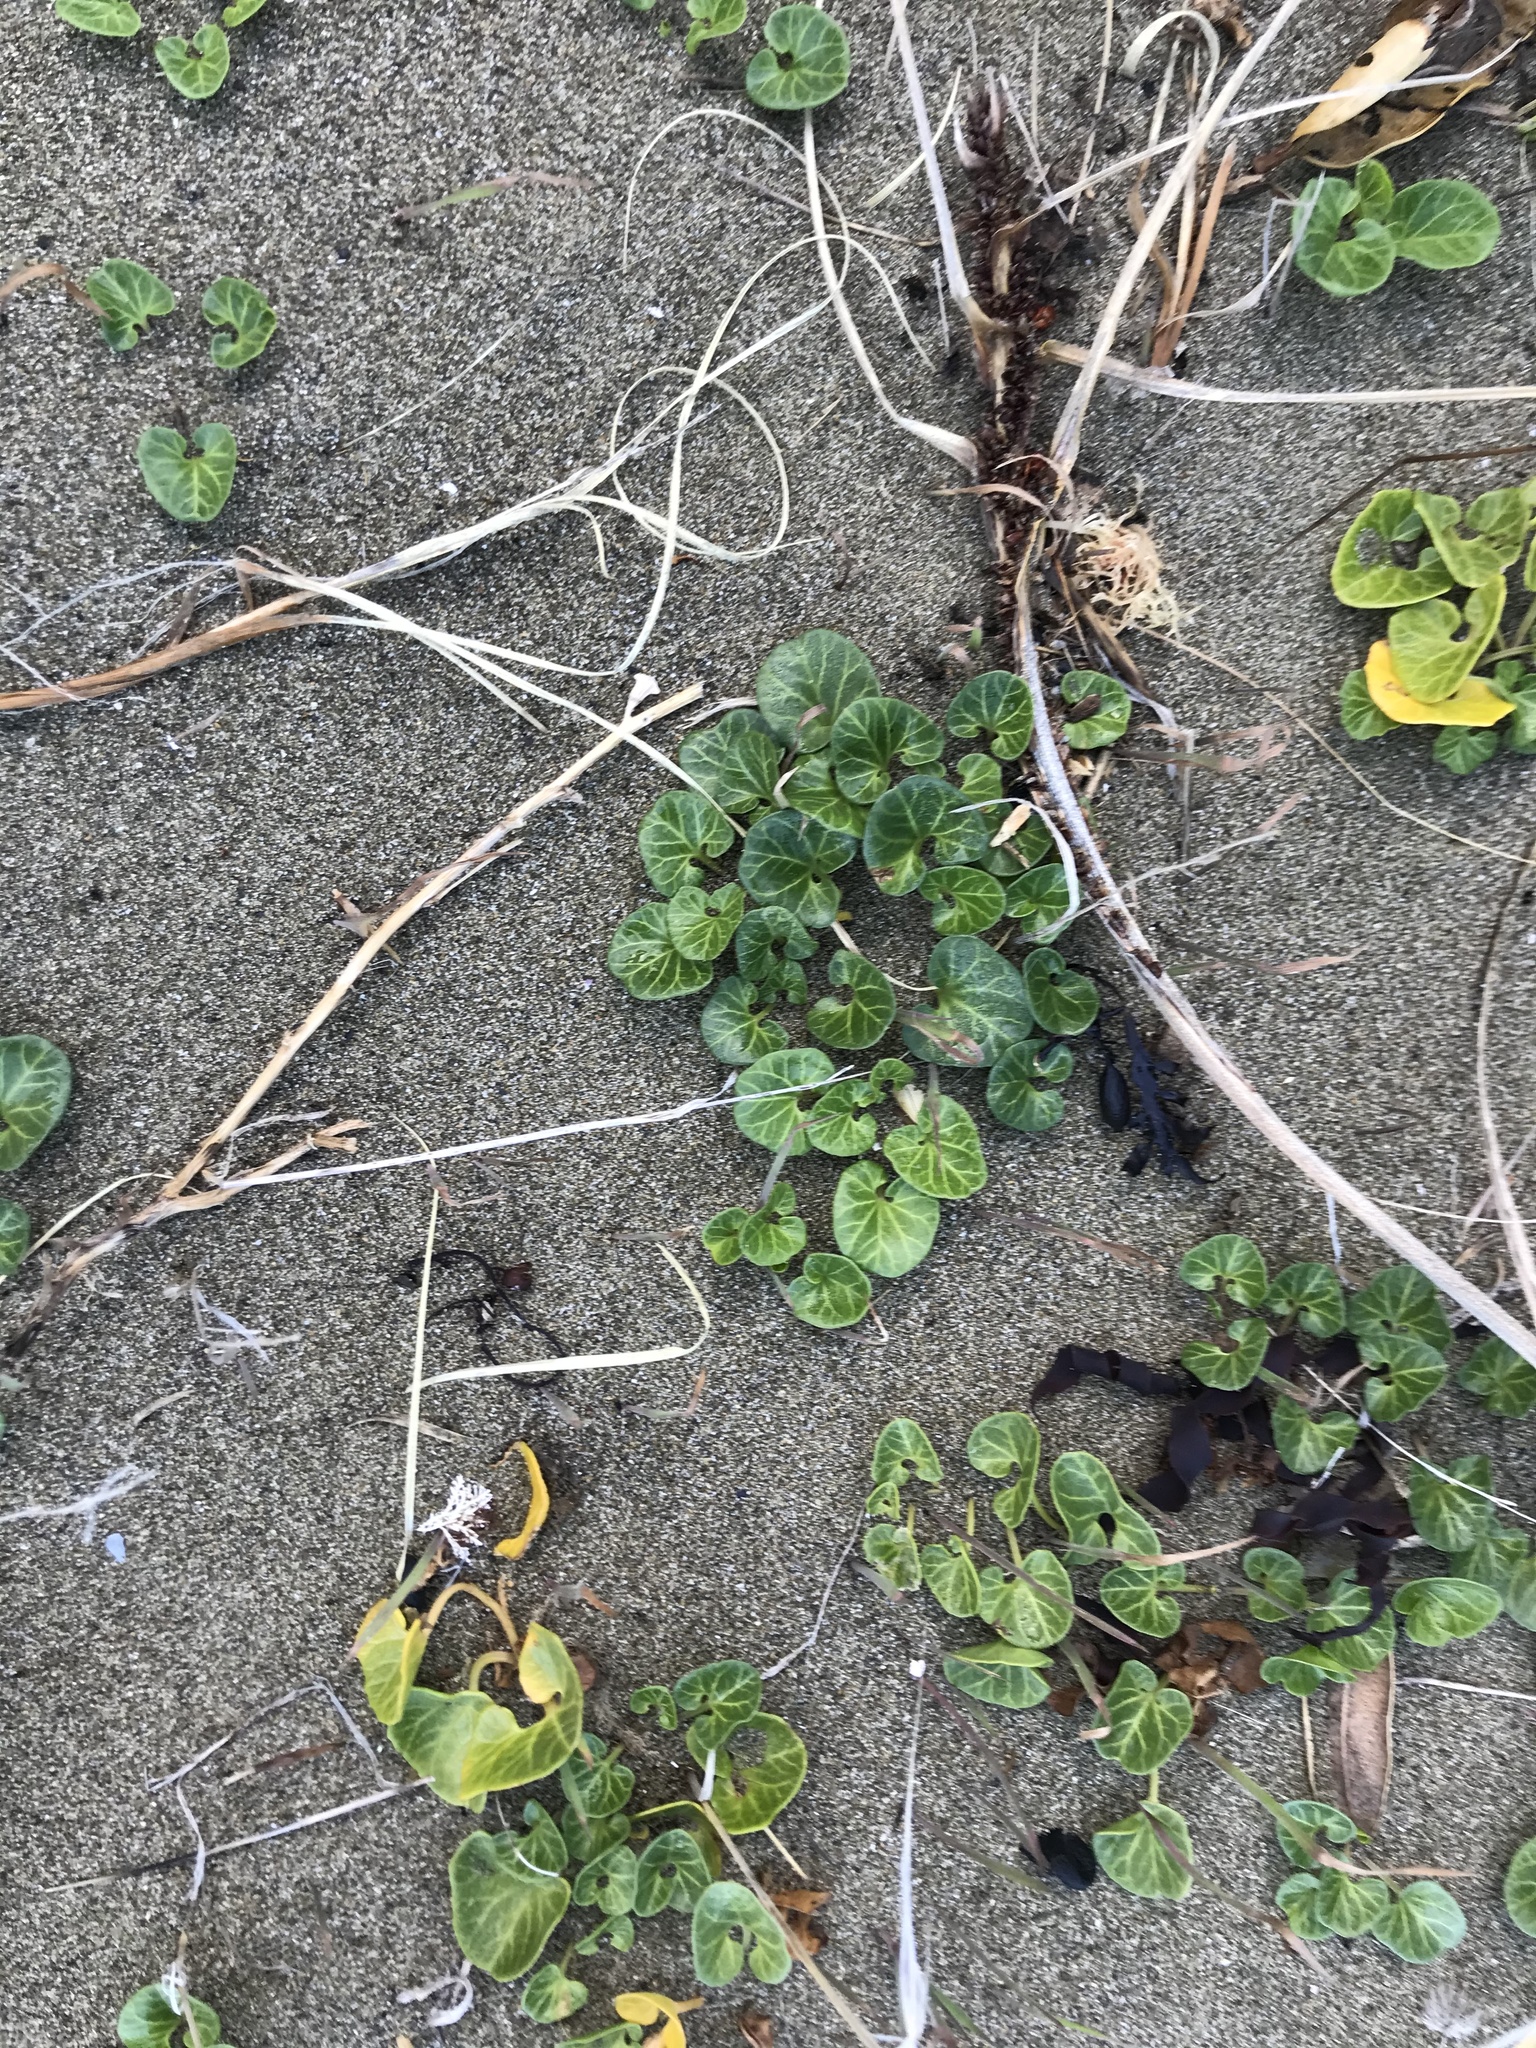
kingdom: Plantae
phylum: Tracheophyta
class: Magnoliopsida
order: Solanales
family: Convolvulaceae
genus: Calystegia
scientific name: Calystegia soldanella
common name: Sea bindweed
